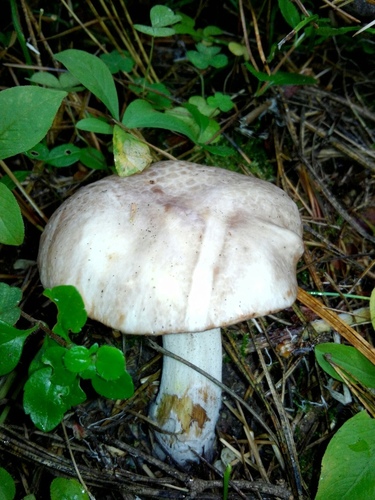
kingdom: Fungi
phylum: Basidiomycota
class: Agaricomycetes
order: Boletales
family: Suillaceae
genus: Suillus
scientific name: Suillus placidus
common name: Slippery white bolete
